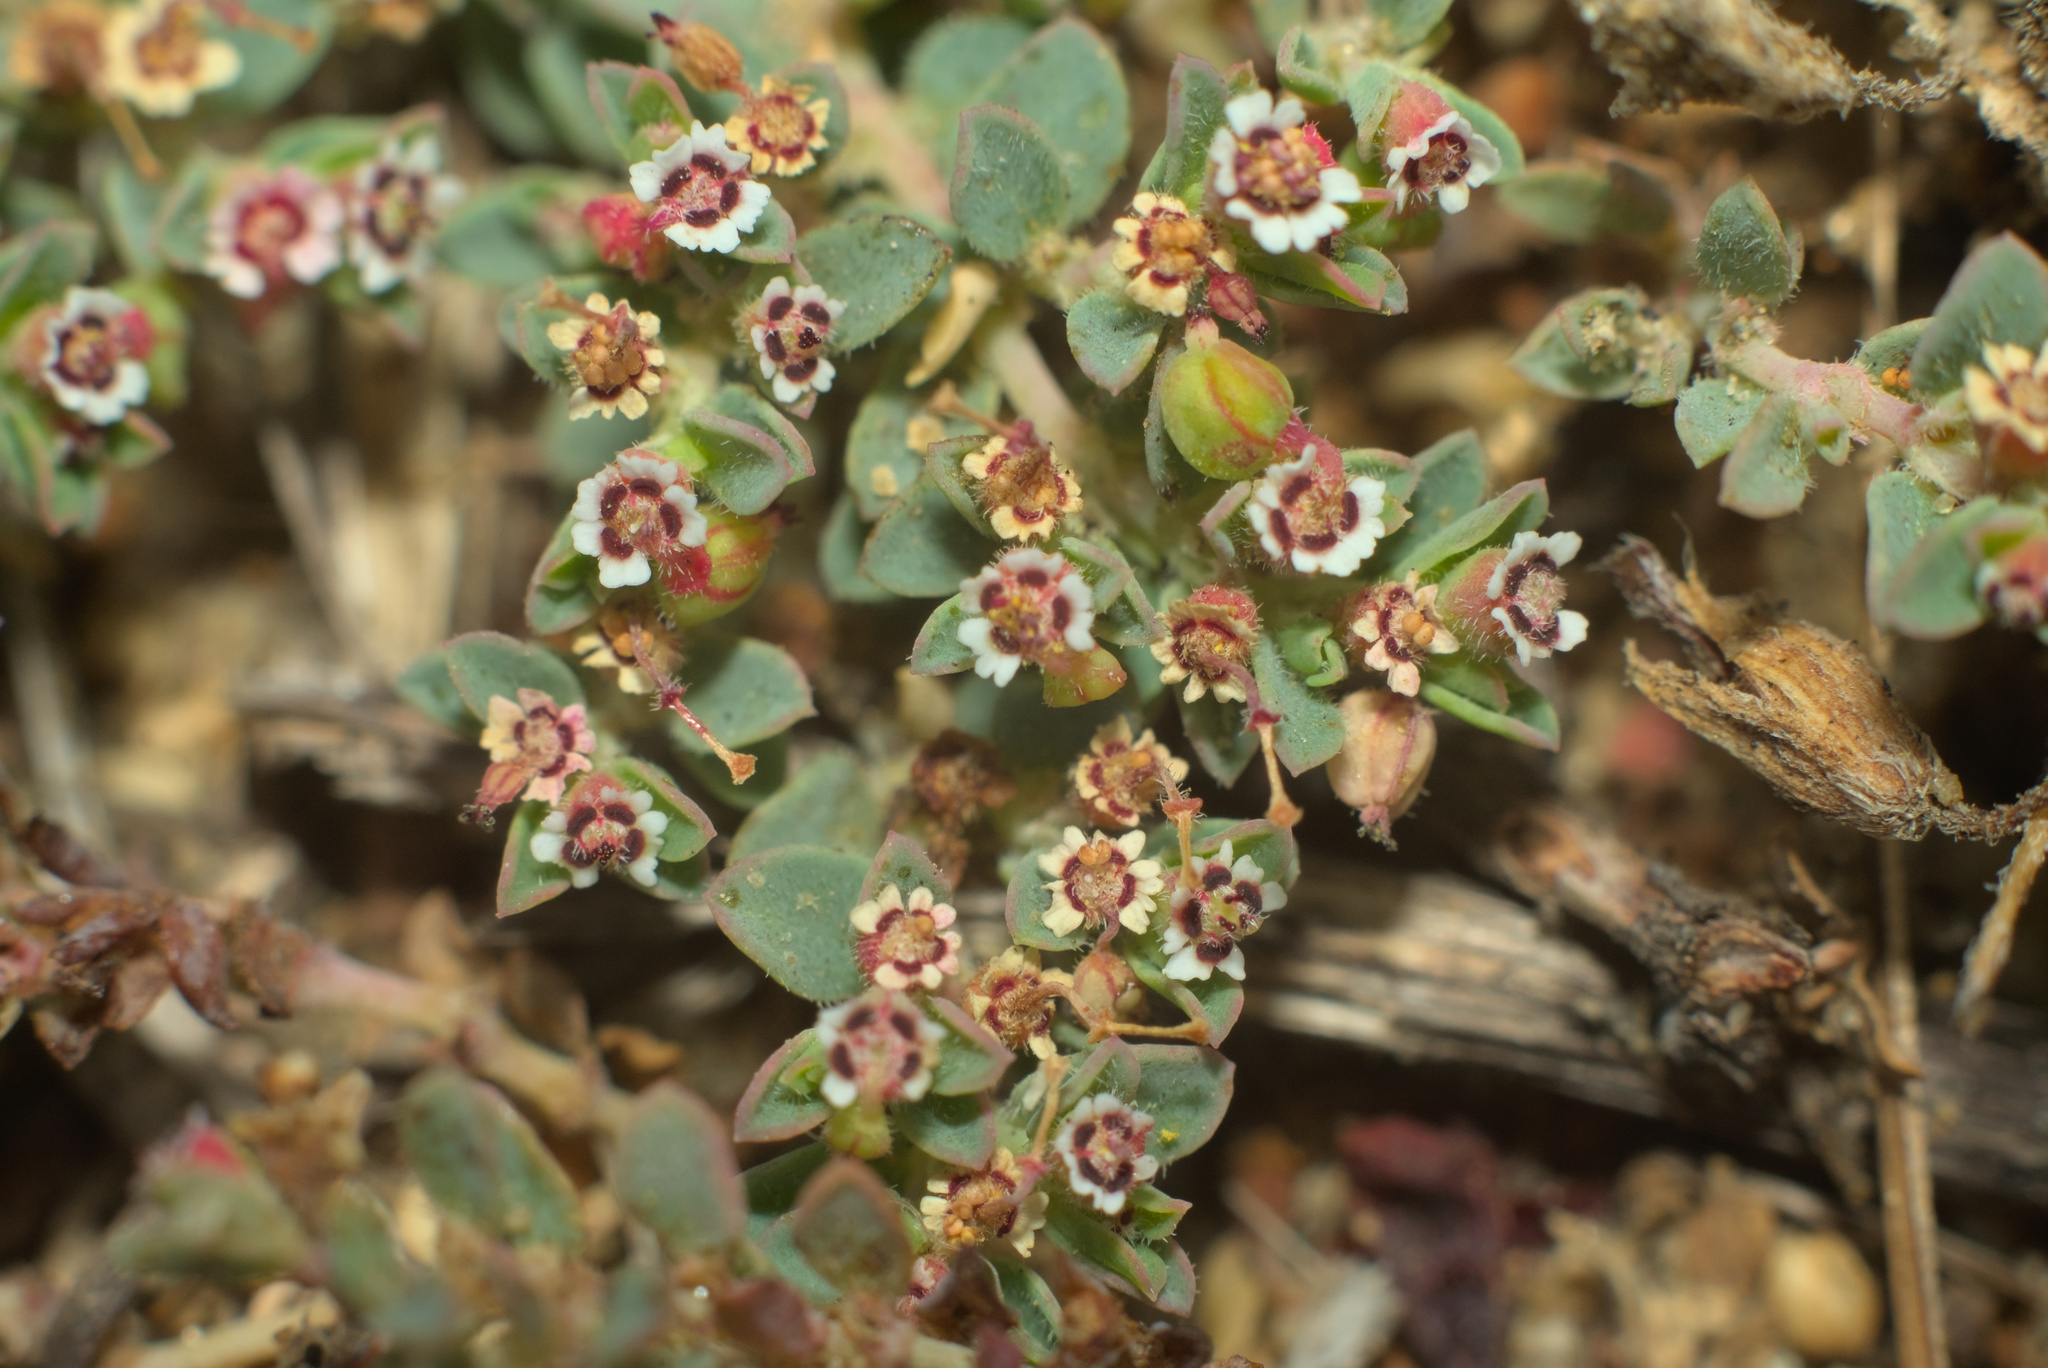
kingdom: Plantae
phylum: Tracheophyta
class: Magnoliopsida
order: Malpighiales
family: Euphorbiaceae
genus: Euphorbia
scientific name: Euphorbia polycarpa
